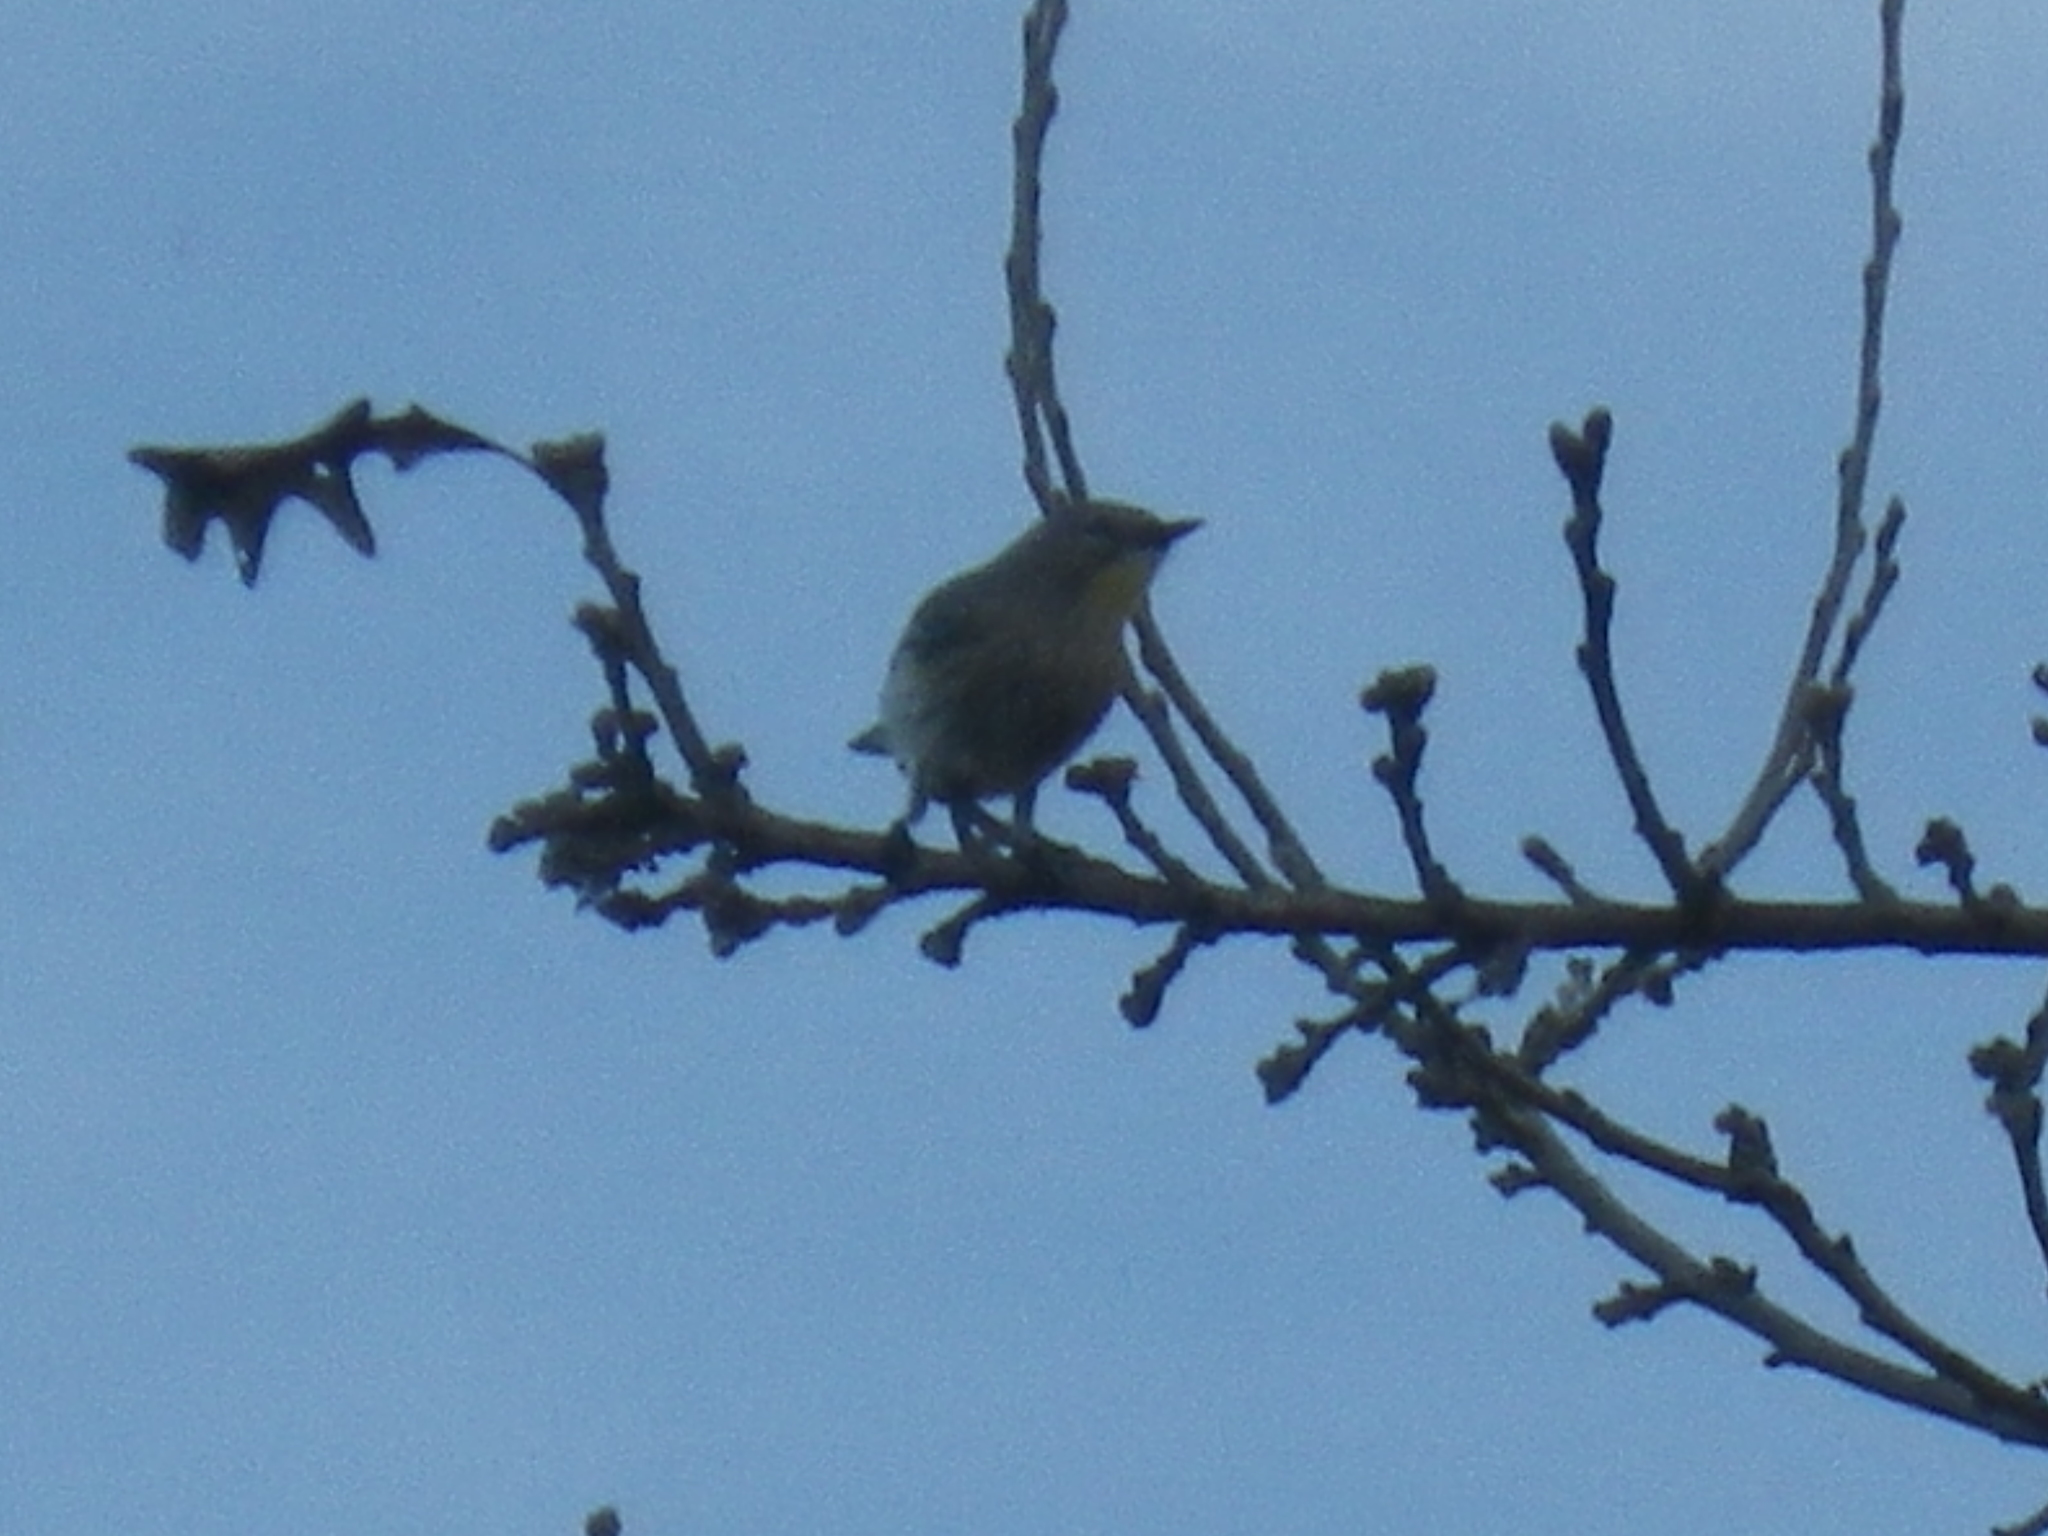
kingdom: Animalia
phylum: Chordata
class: Aves
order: Passeriformes
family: Parulidae
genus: Setophaga
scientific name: Setophaga auduboni
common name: Audubon's warbler
